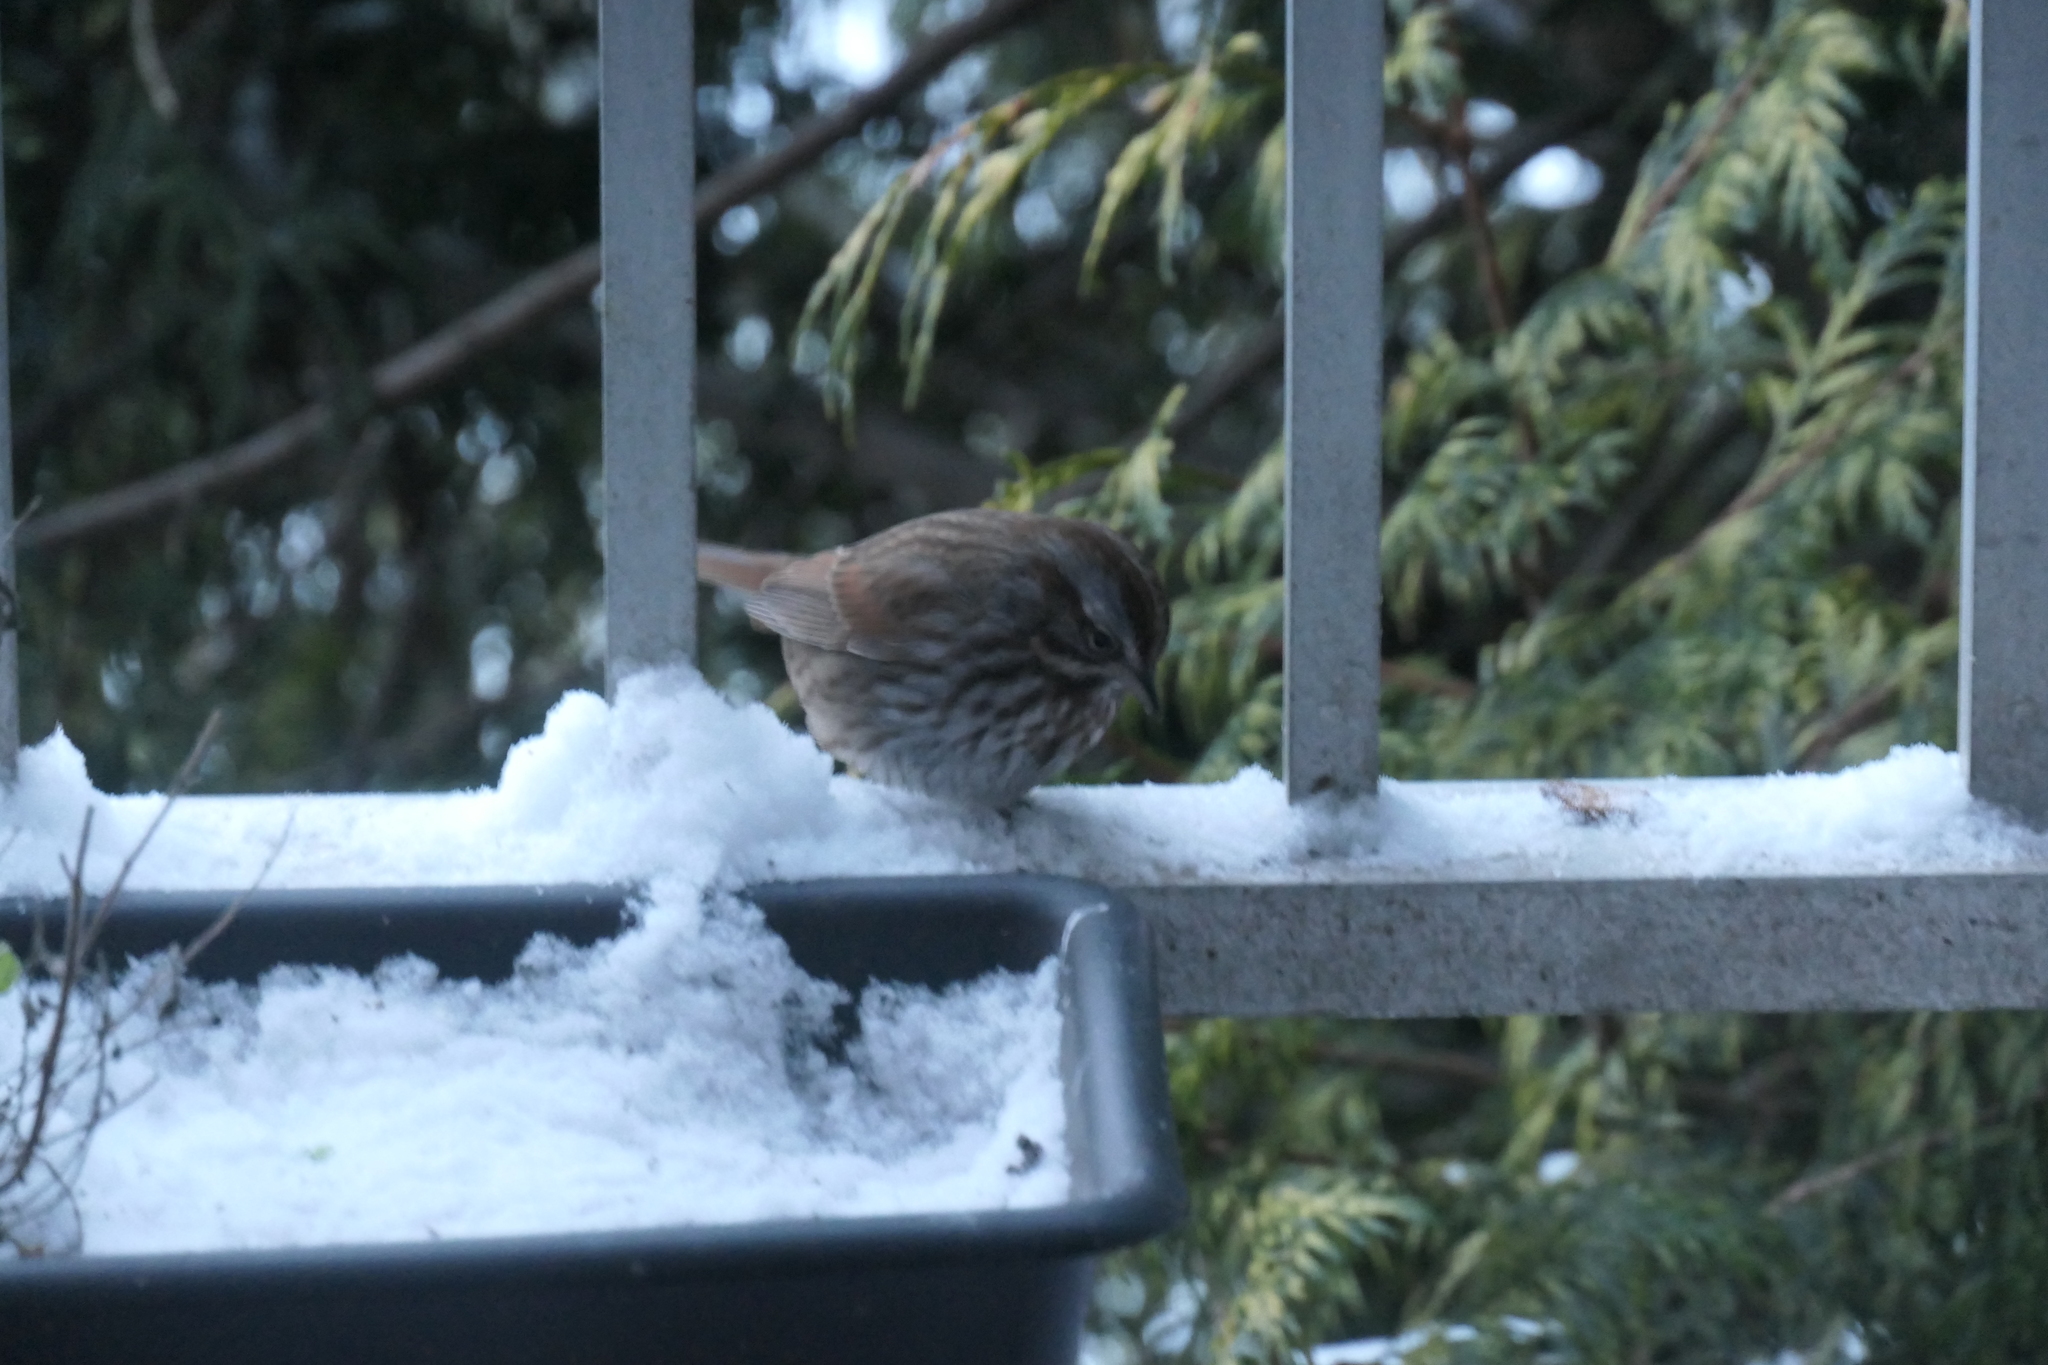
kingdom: Animalia
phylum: Chordata
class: Aves
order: Passeriformes
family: Passerellidae
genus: Melospiza
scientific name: Melospiza melodia
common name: Song sparrow
